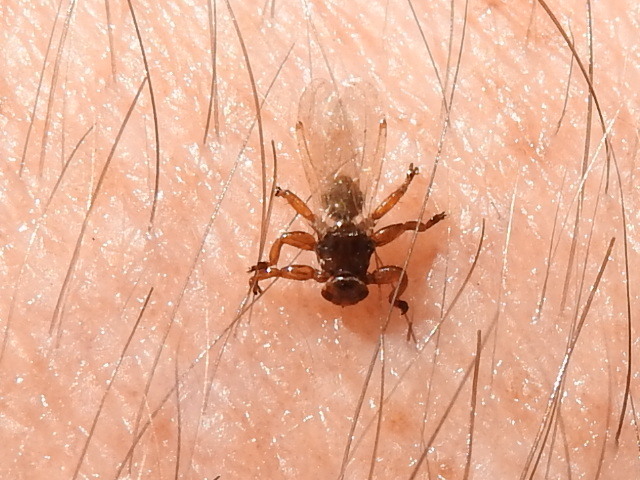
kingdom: Animalia
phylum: Arthropoda
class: Insecta
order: Diptera
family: Hippoboscidae
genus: Lipoptena
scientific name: Lipoptena mazamae
